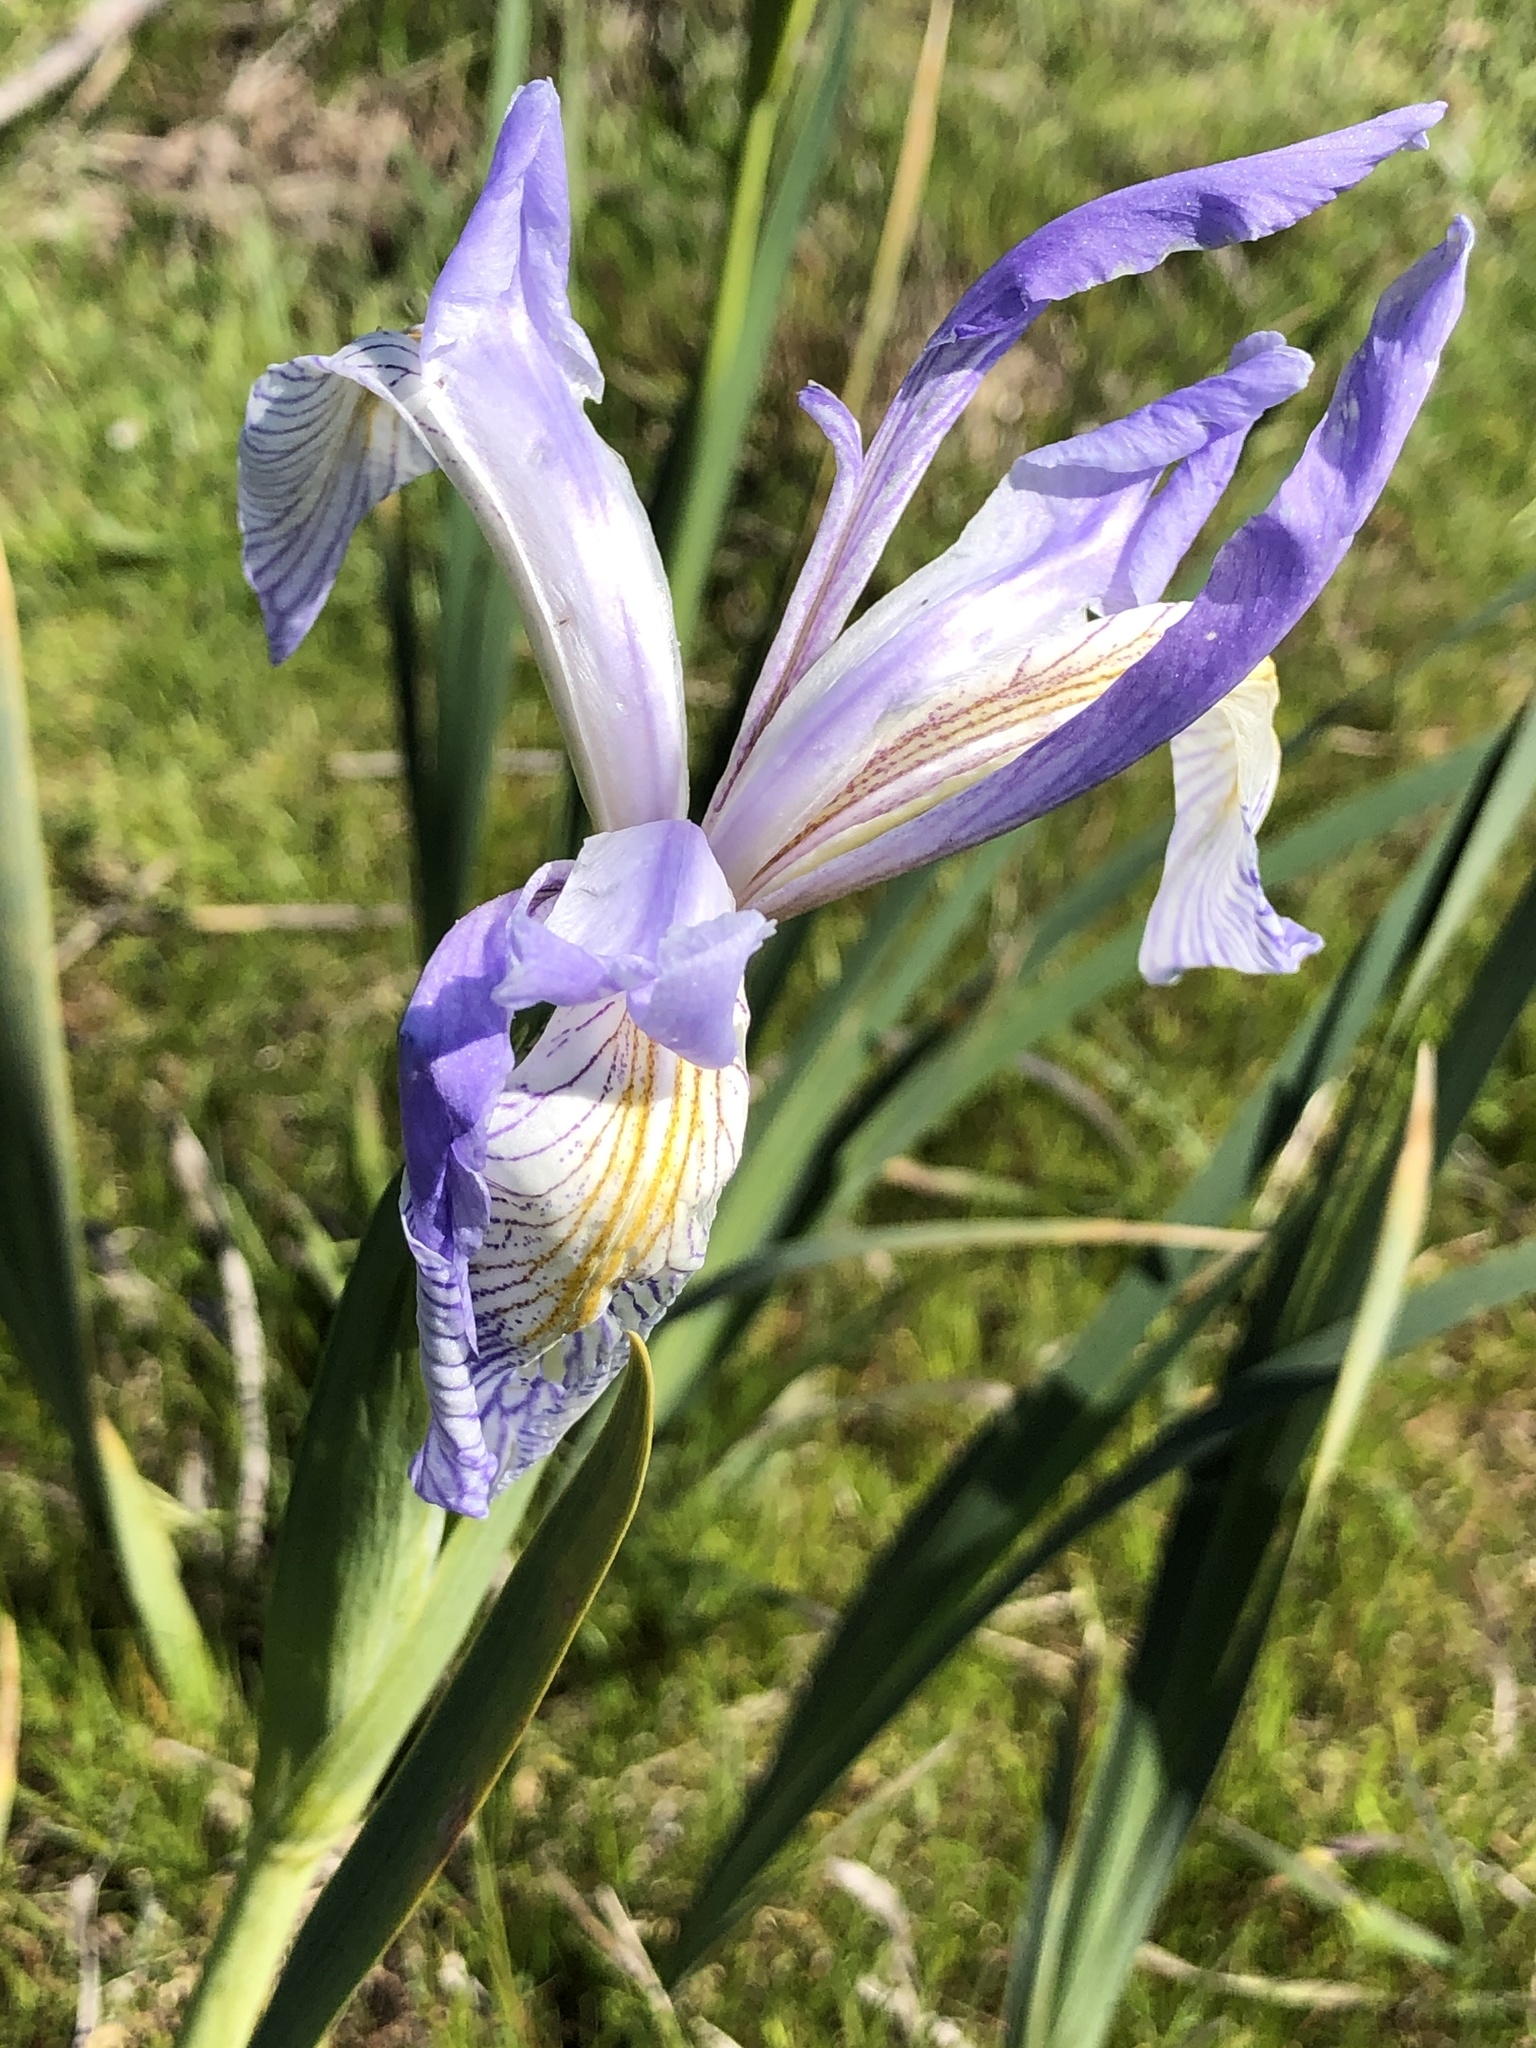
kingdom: Plantae
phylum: Tracheophyta
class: Liliopsida
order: Asparagales
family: Iridaceae
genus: Iris
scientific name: Iris longipetala
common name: Long-petal iris
